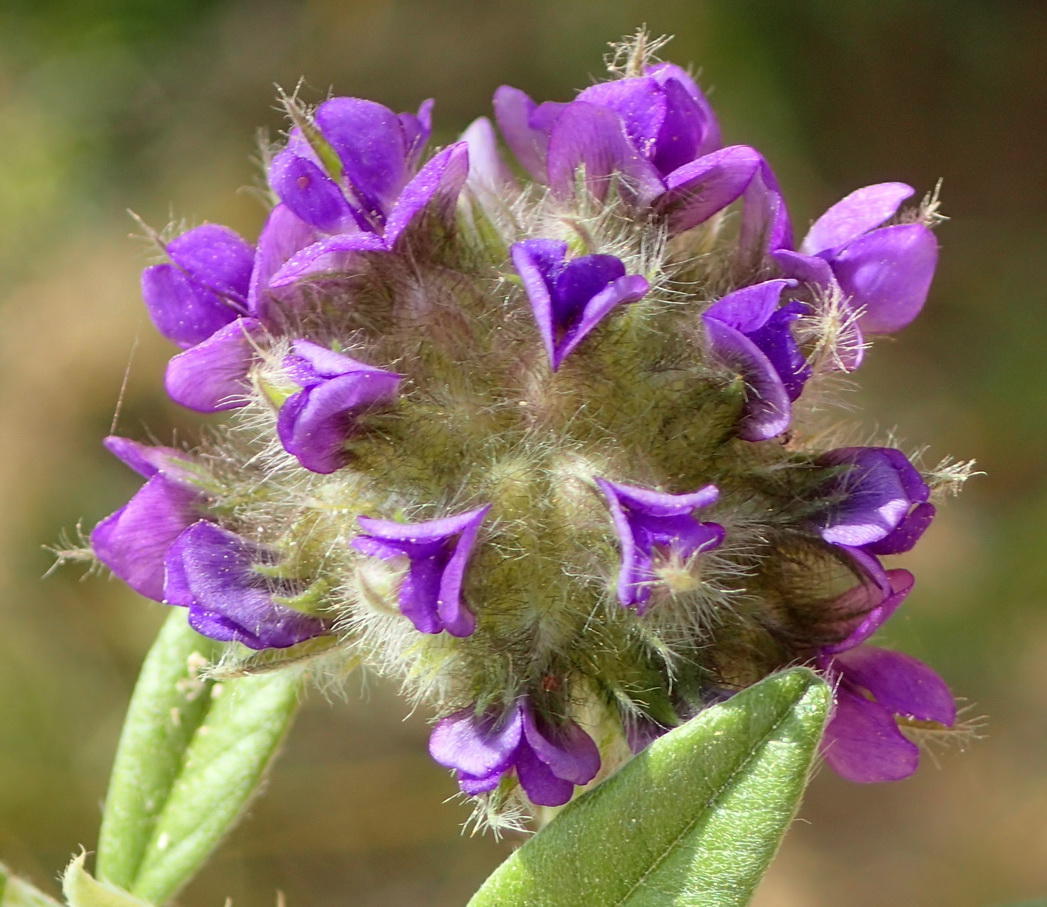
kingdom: Plantae
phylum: Tracheophyta
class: Magnoliopsida
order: Fabales
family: Fabaceae
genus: Psoralea
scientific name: Psoralea sericea
